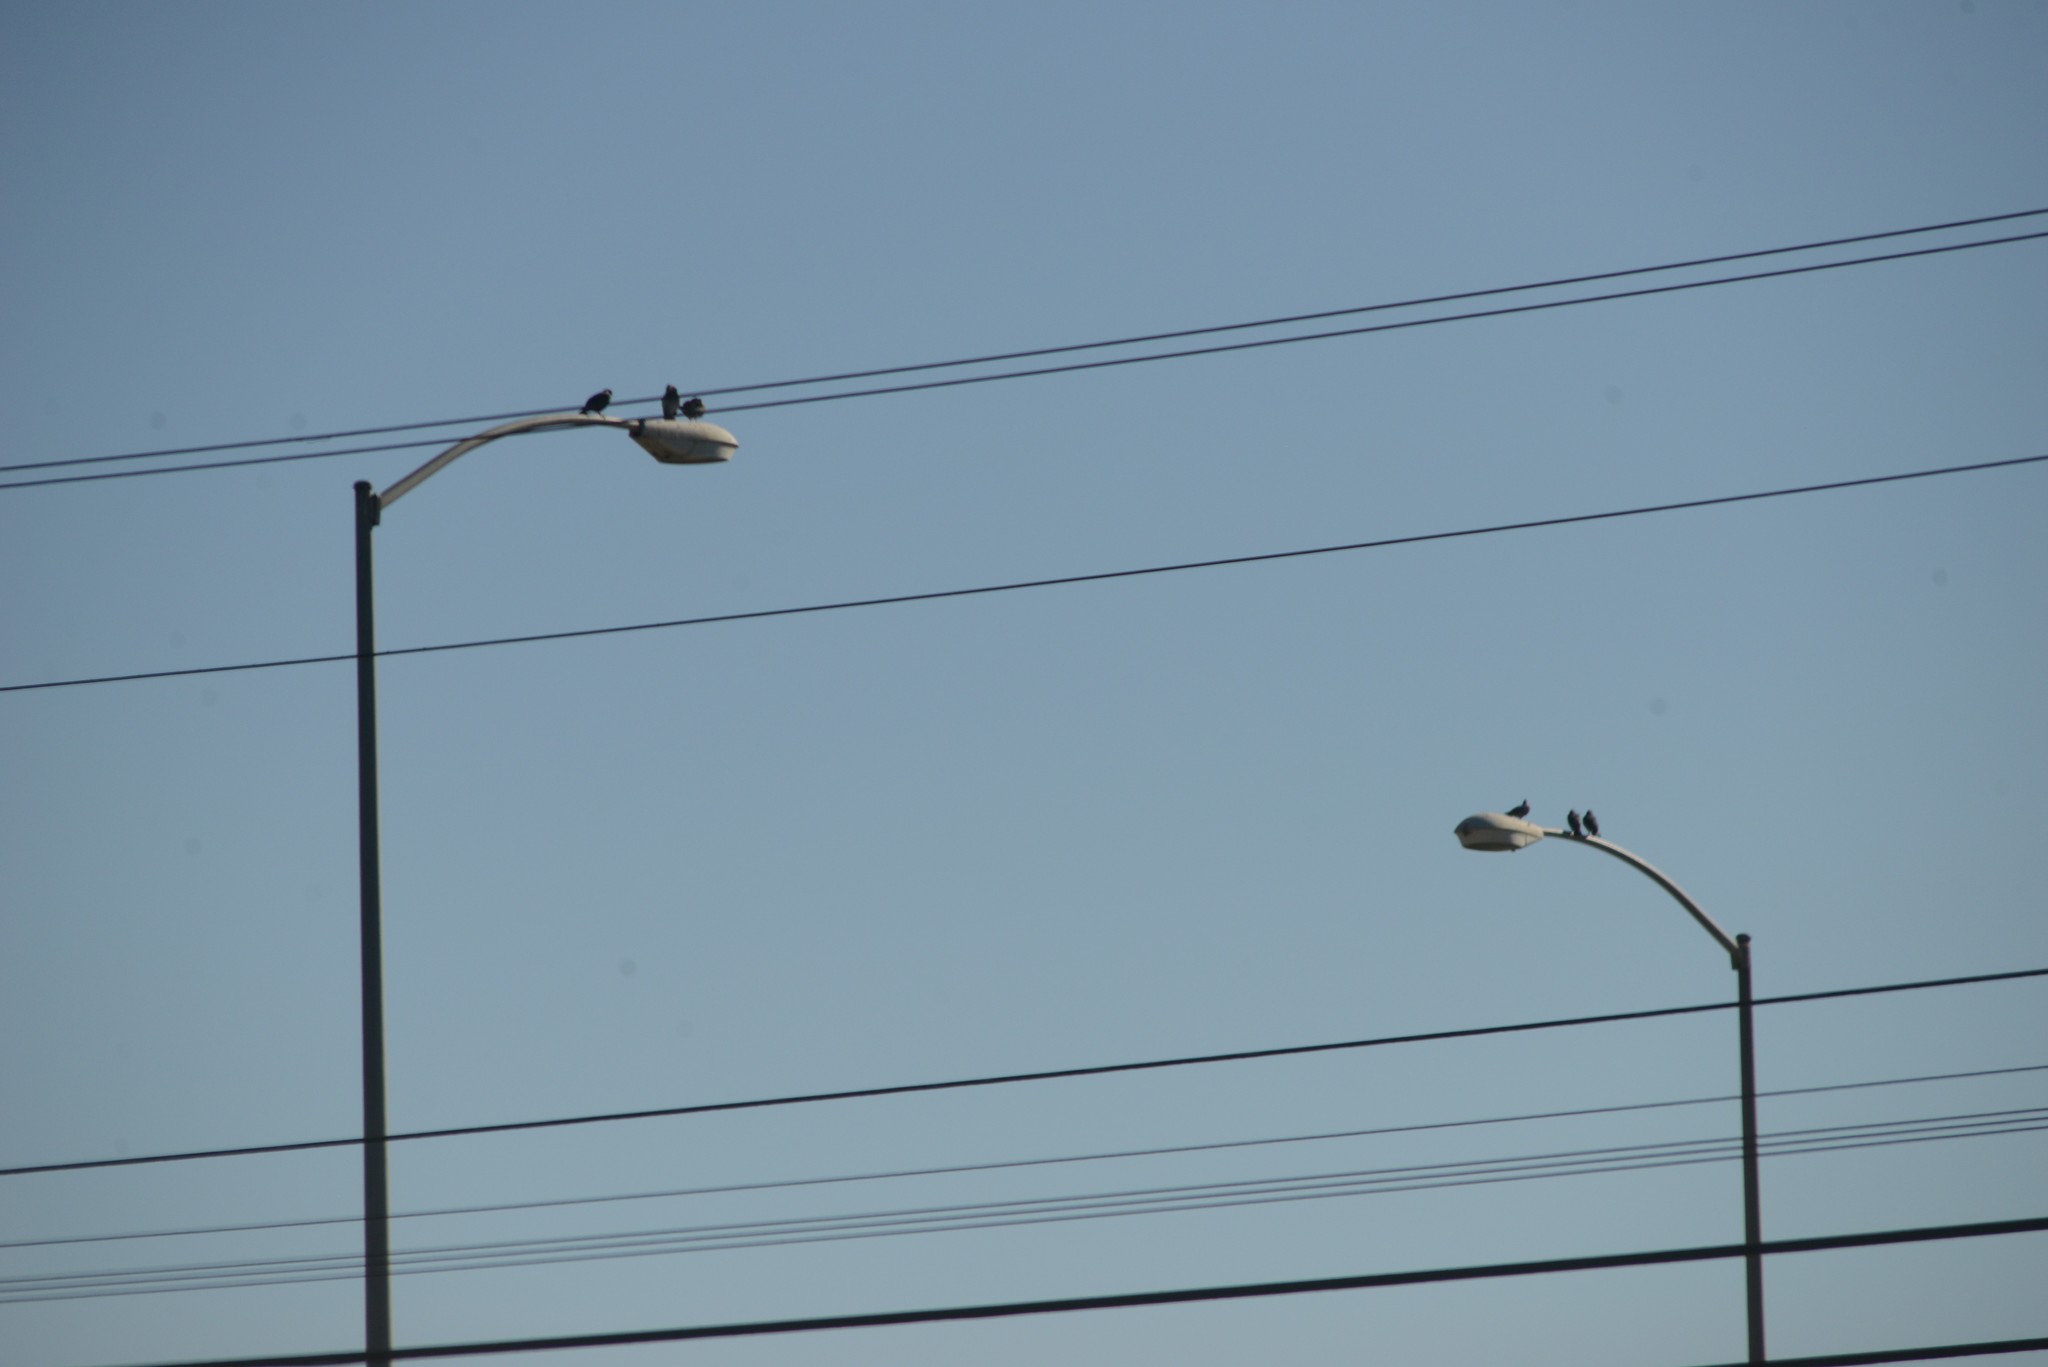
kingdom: Animalia
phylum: Chordata
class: Aves
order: Columbiformes
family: Columbidae
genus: Columba
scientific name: Columba livia
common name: Rock pigeon
